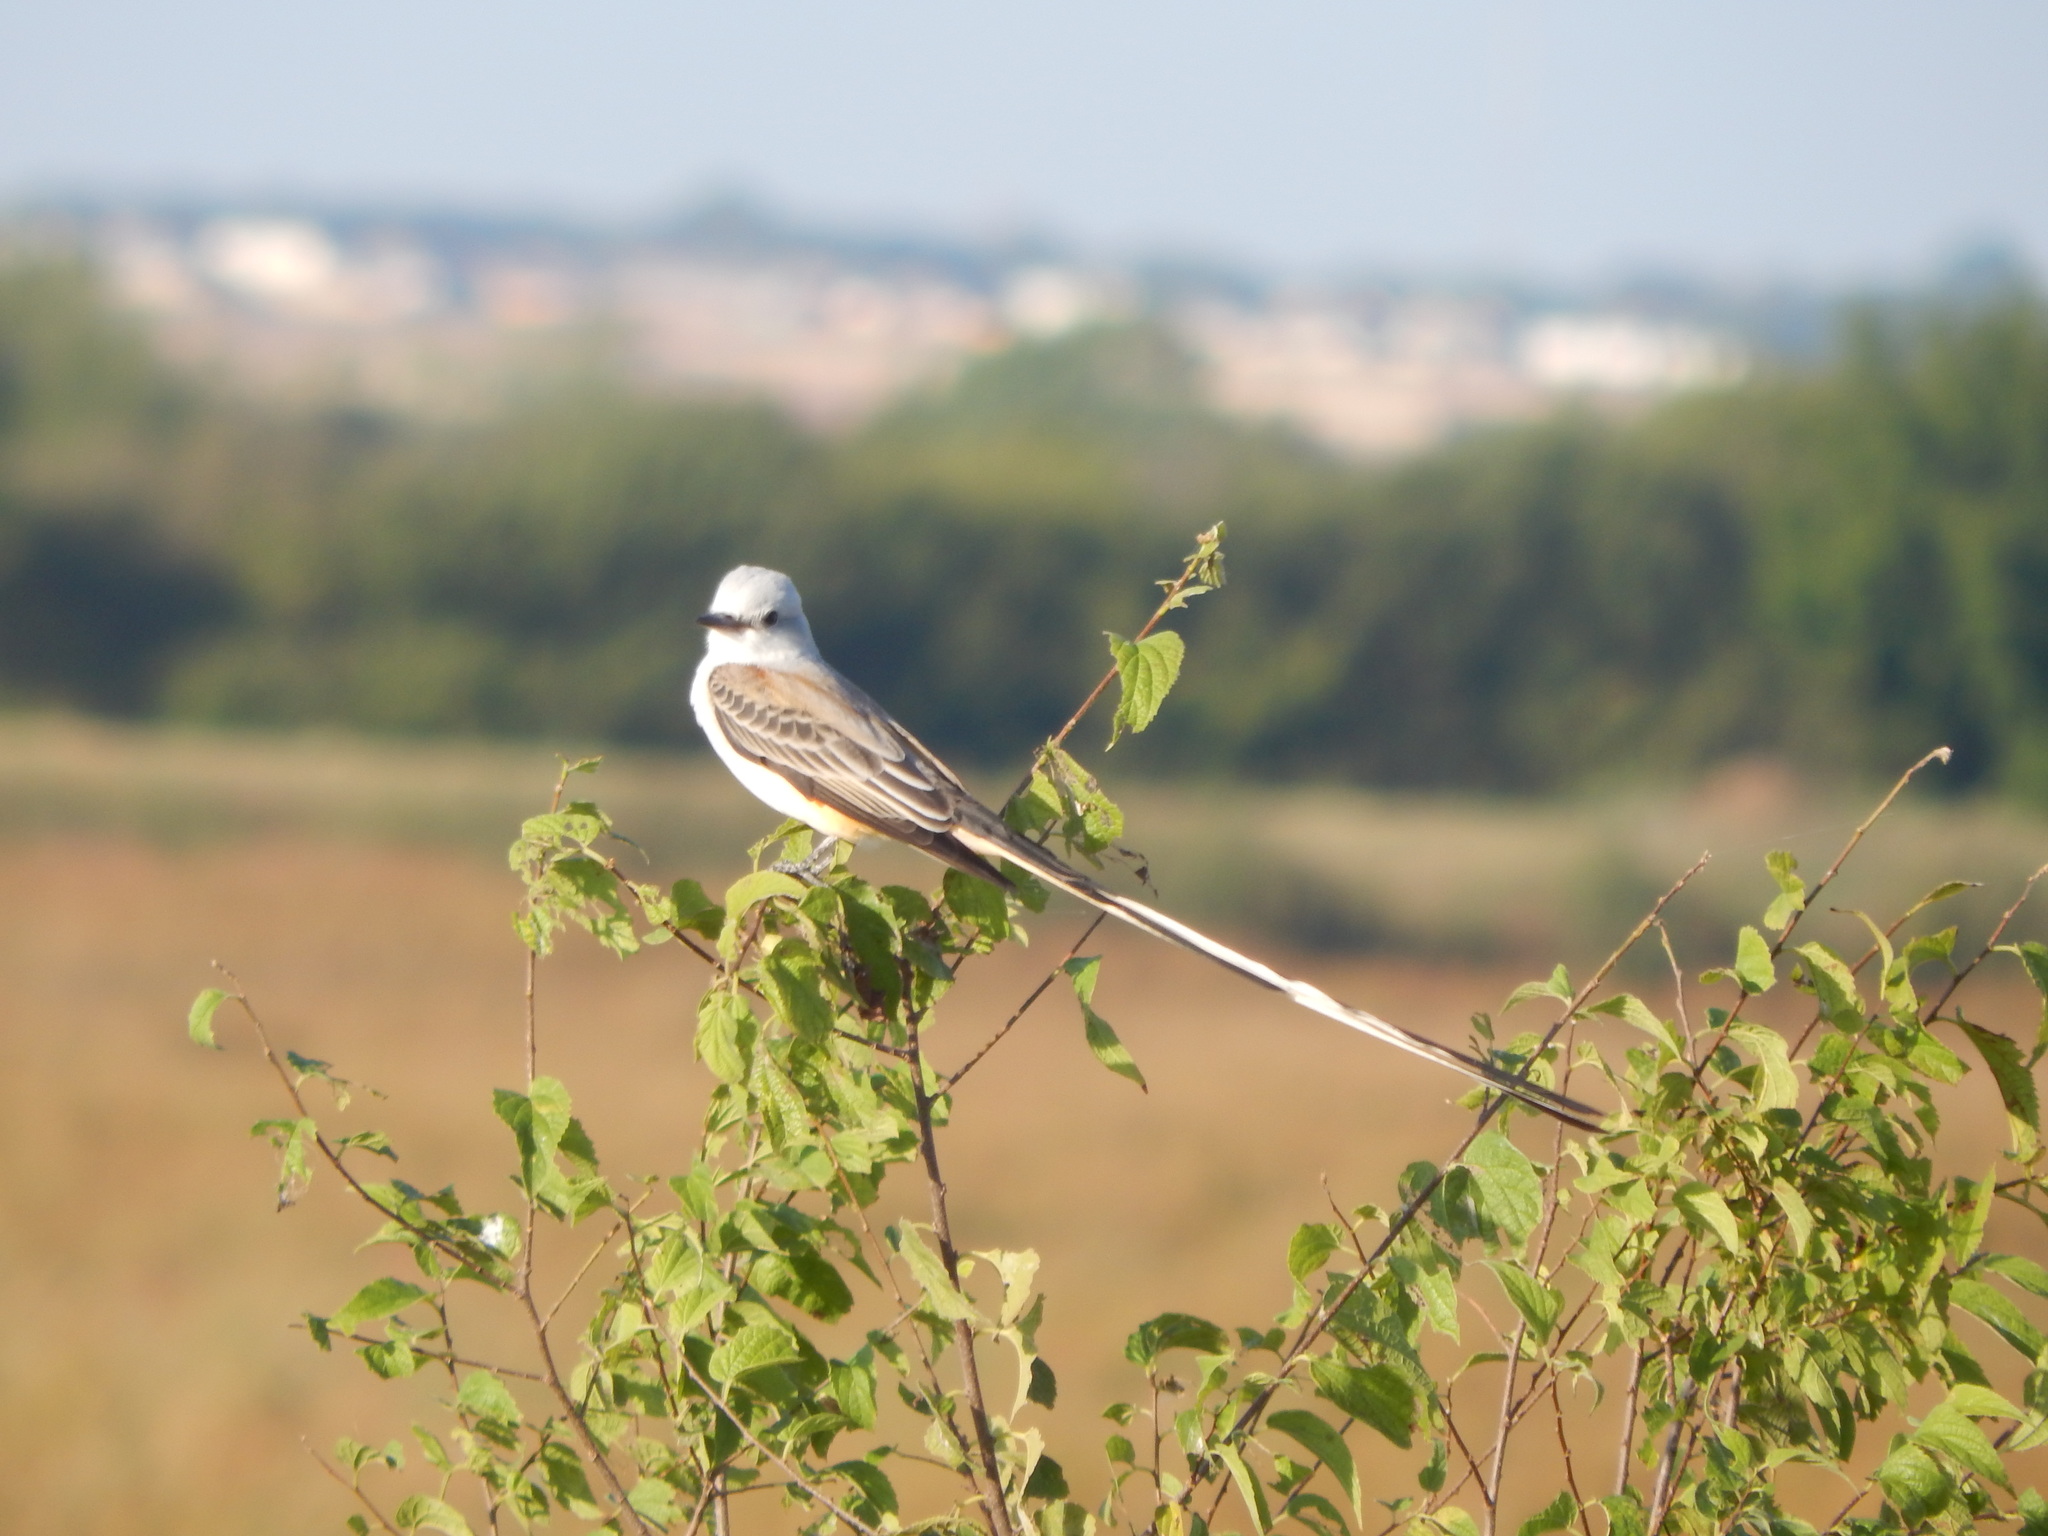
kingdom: Animalia
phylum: Chordata
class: Aves
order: Passeriformes
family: Tyrannidae
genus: Tyrannus
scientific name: Tyrannus forficatus
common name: Scissor-tailed flycatcher
